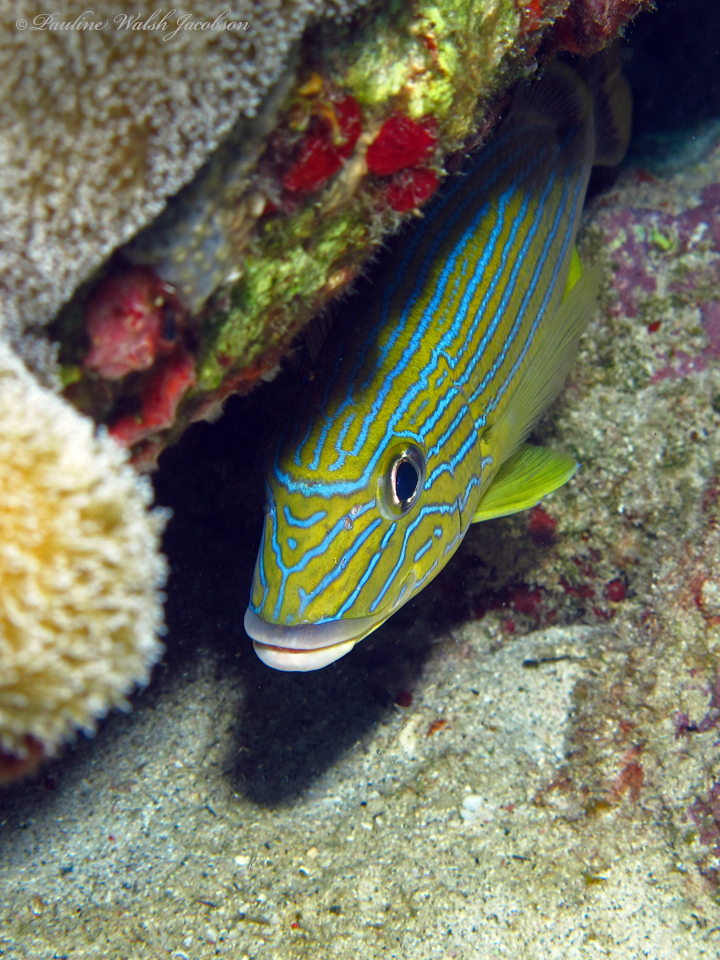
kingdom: Animalia
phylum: Chordata
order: Perciformes
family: Haemulidae
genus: Haemulon
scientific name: Haemulon sciurus
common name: Bluestriped grunt
